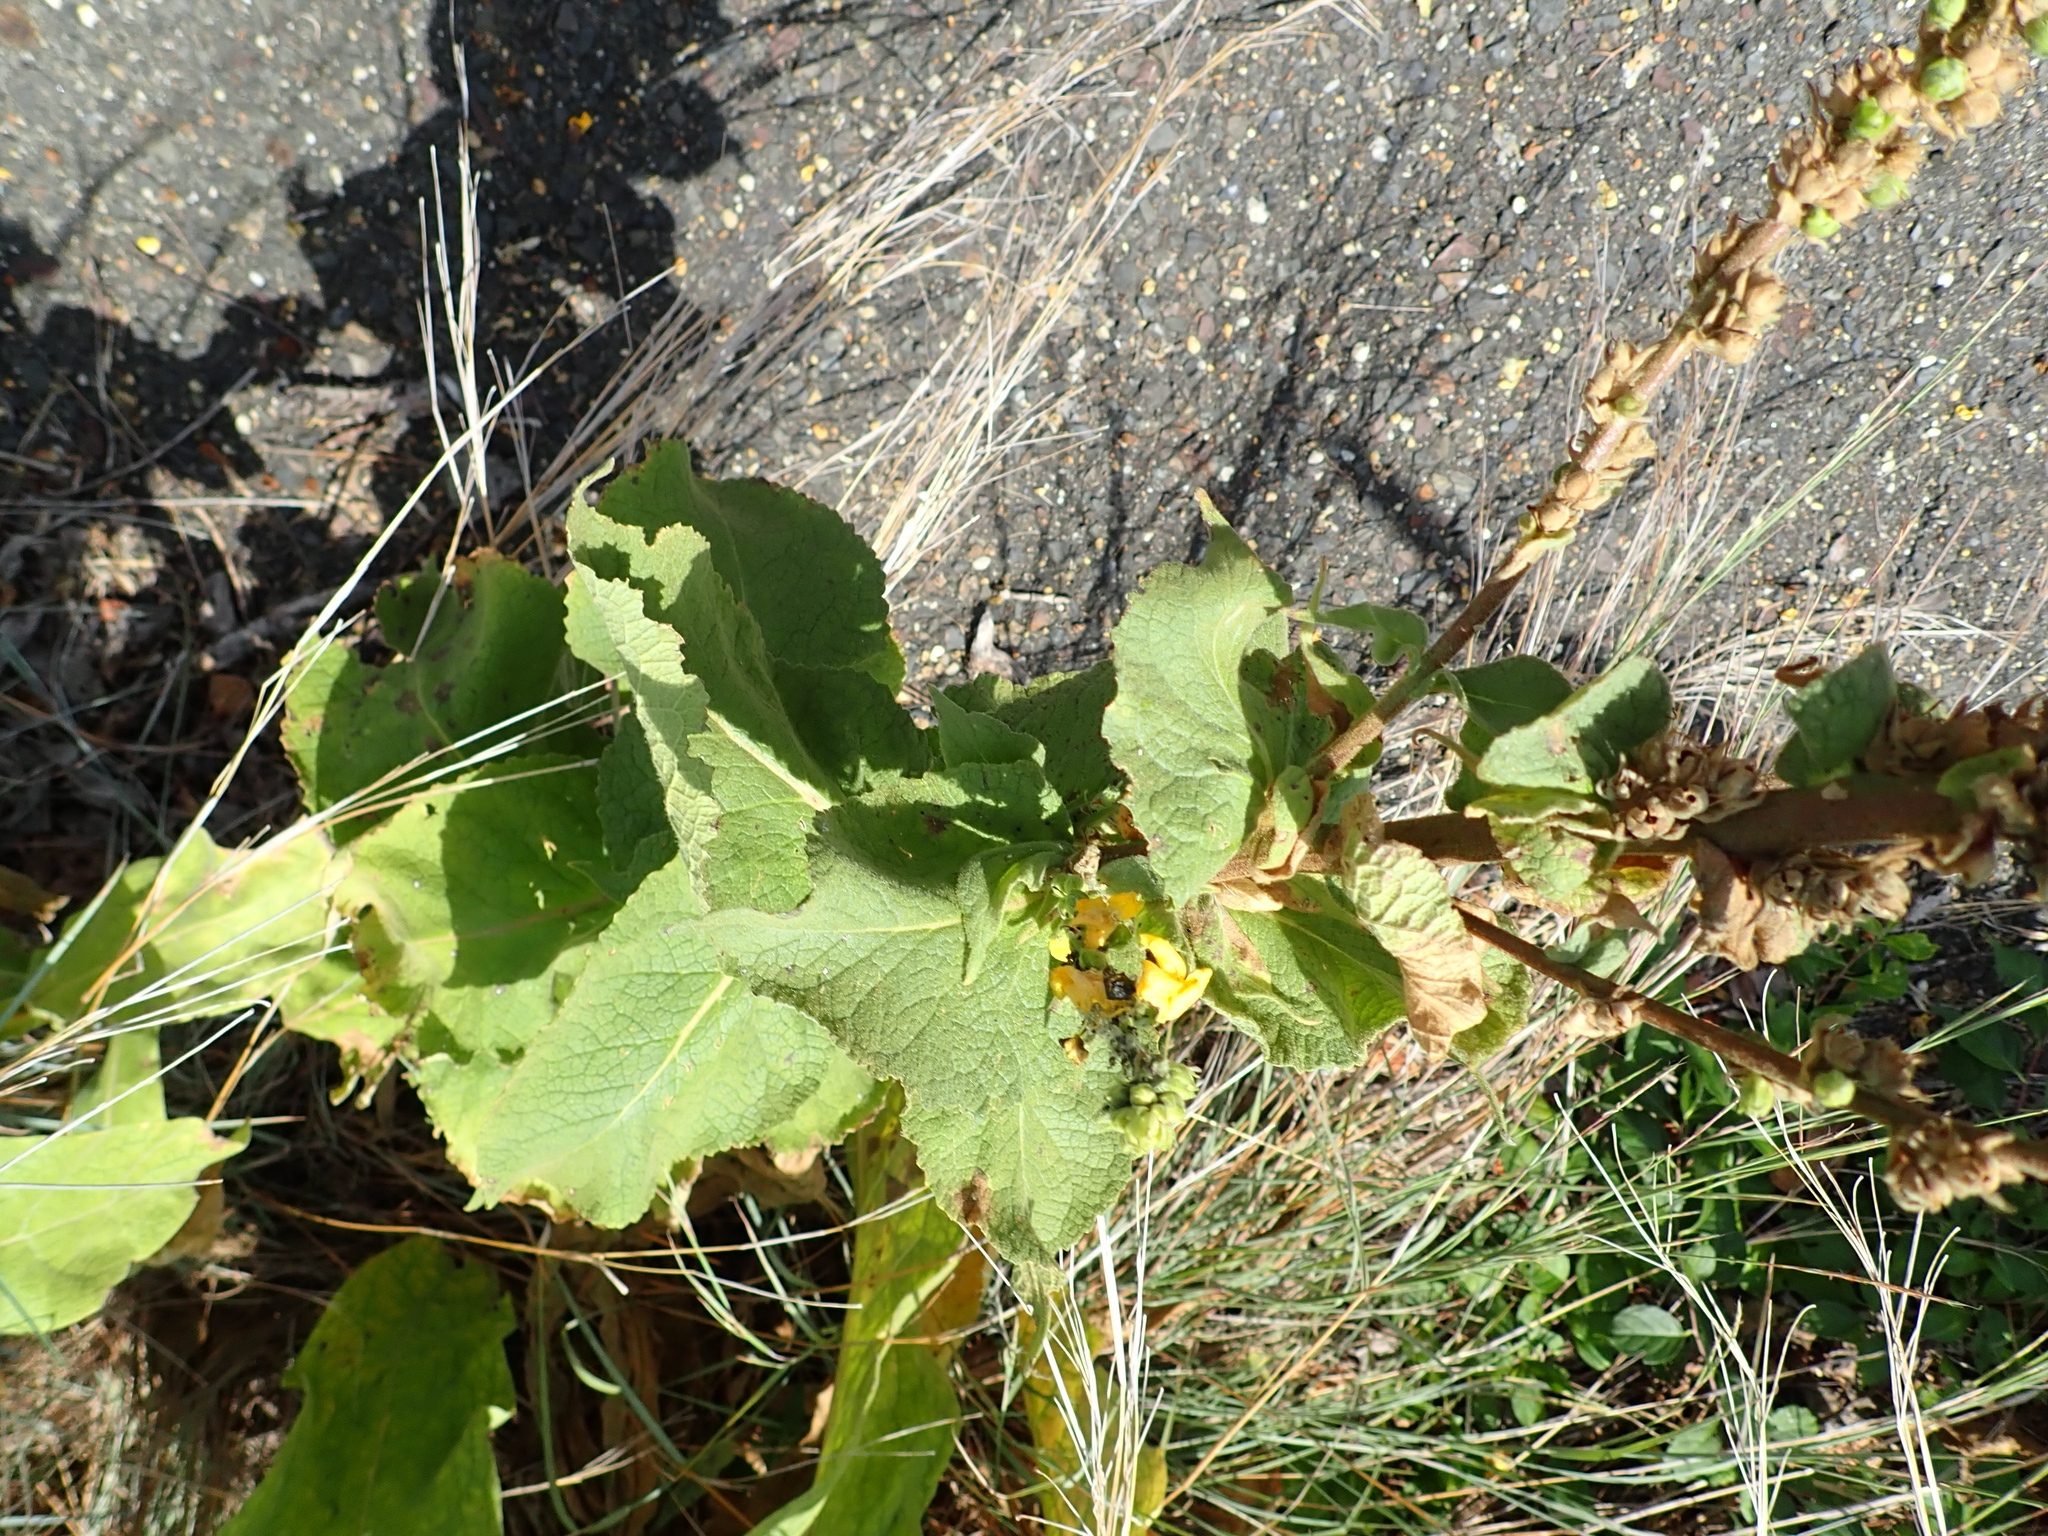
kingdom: Plantae
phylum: Tracheophyta
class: Magnoliopsida
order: Lamiales
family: Scrophulariaceae
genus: Verbascum
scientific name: Verbascum phlomoides
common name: Orange mullein
